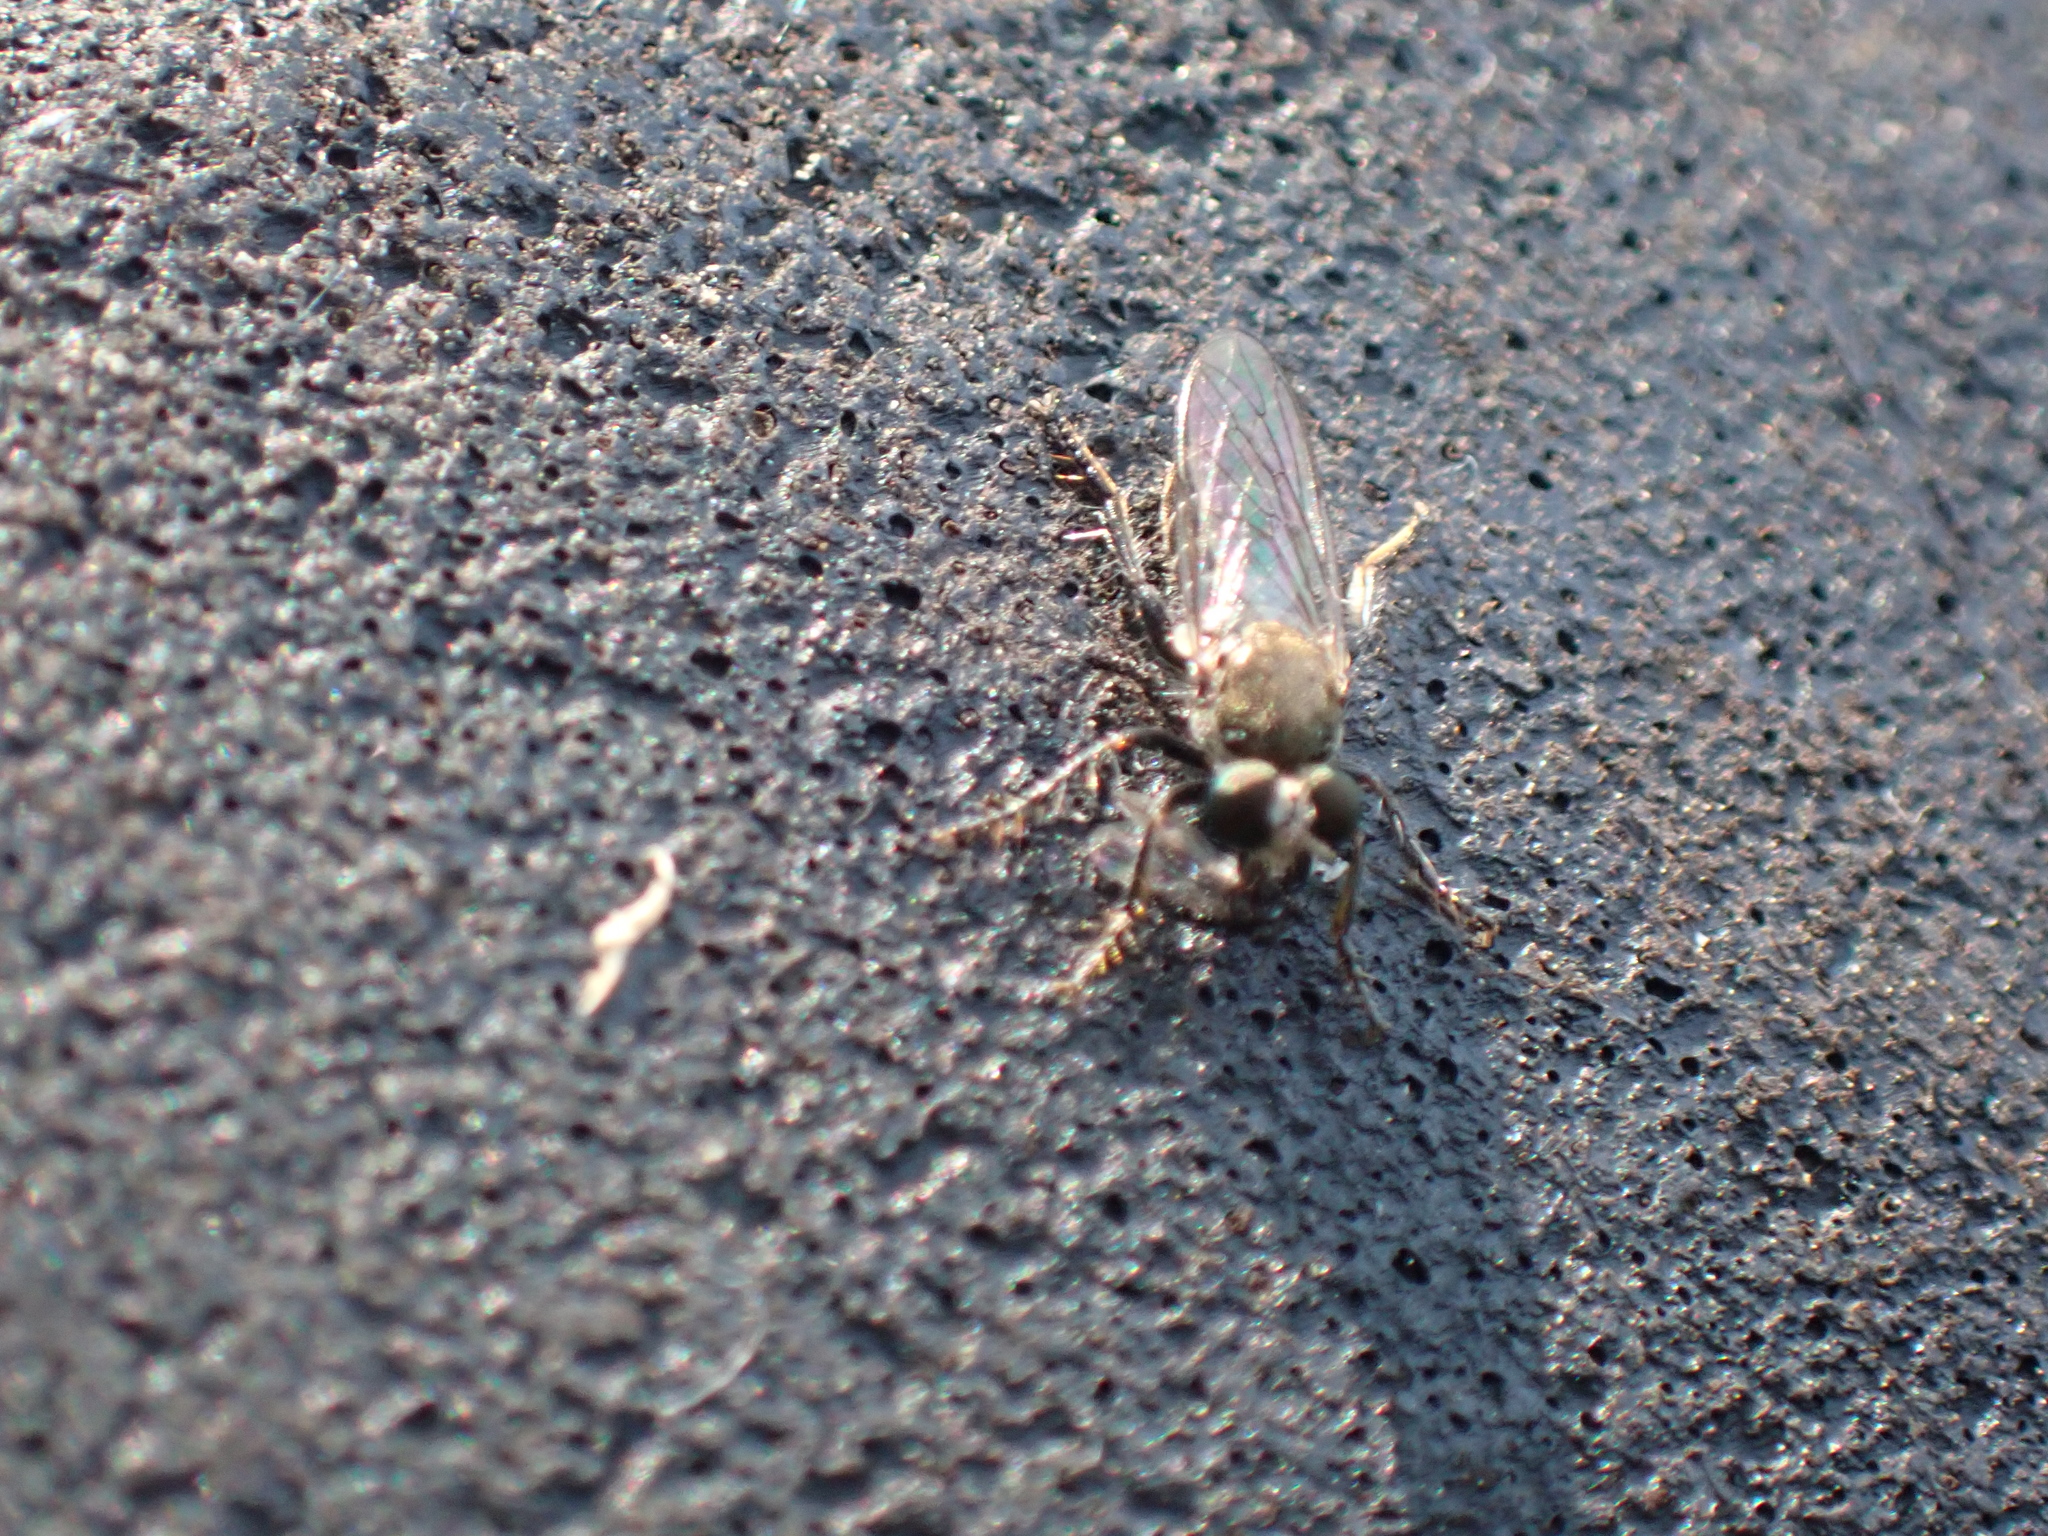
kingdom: Animalia
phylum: Arthropoda
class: Insecta
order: Diptera
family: Asilidae
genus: Atomosia
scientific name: Atomosia puella
